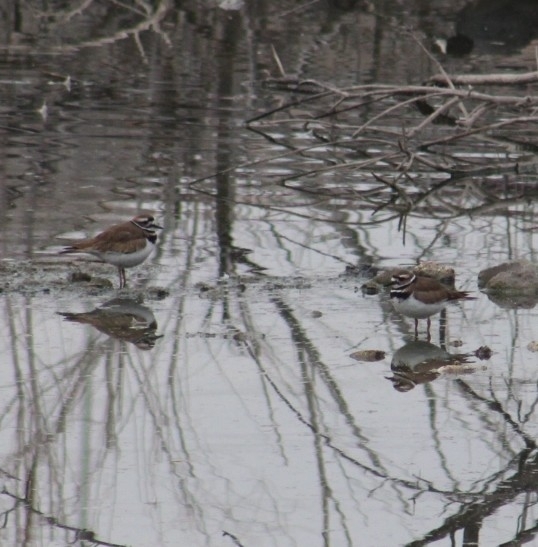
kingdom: Animalia
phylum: Chordata
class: Aves
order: Charadriiformes
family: Charadriidae
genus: Charadrius
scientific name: Charadrius vociferus
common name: Killdeer
